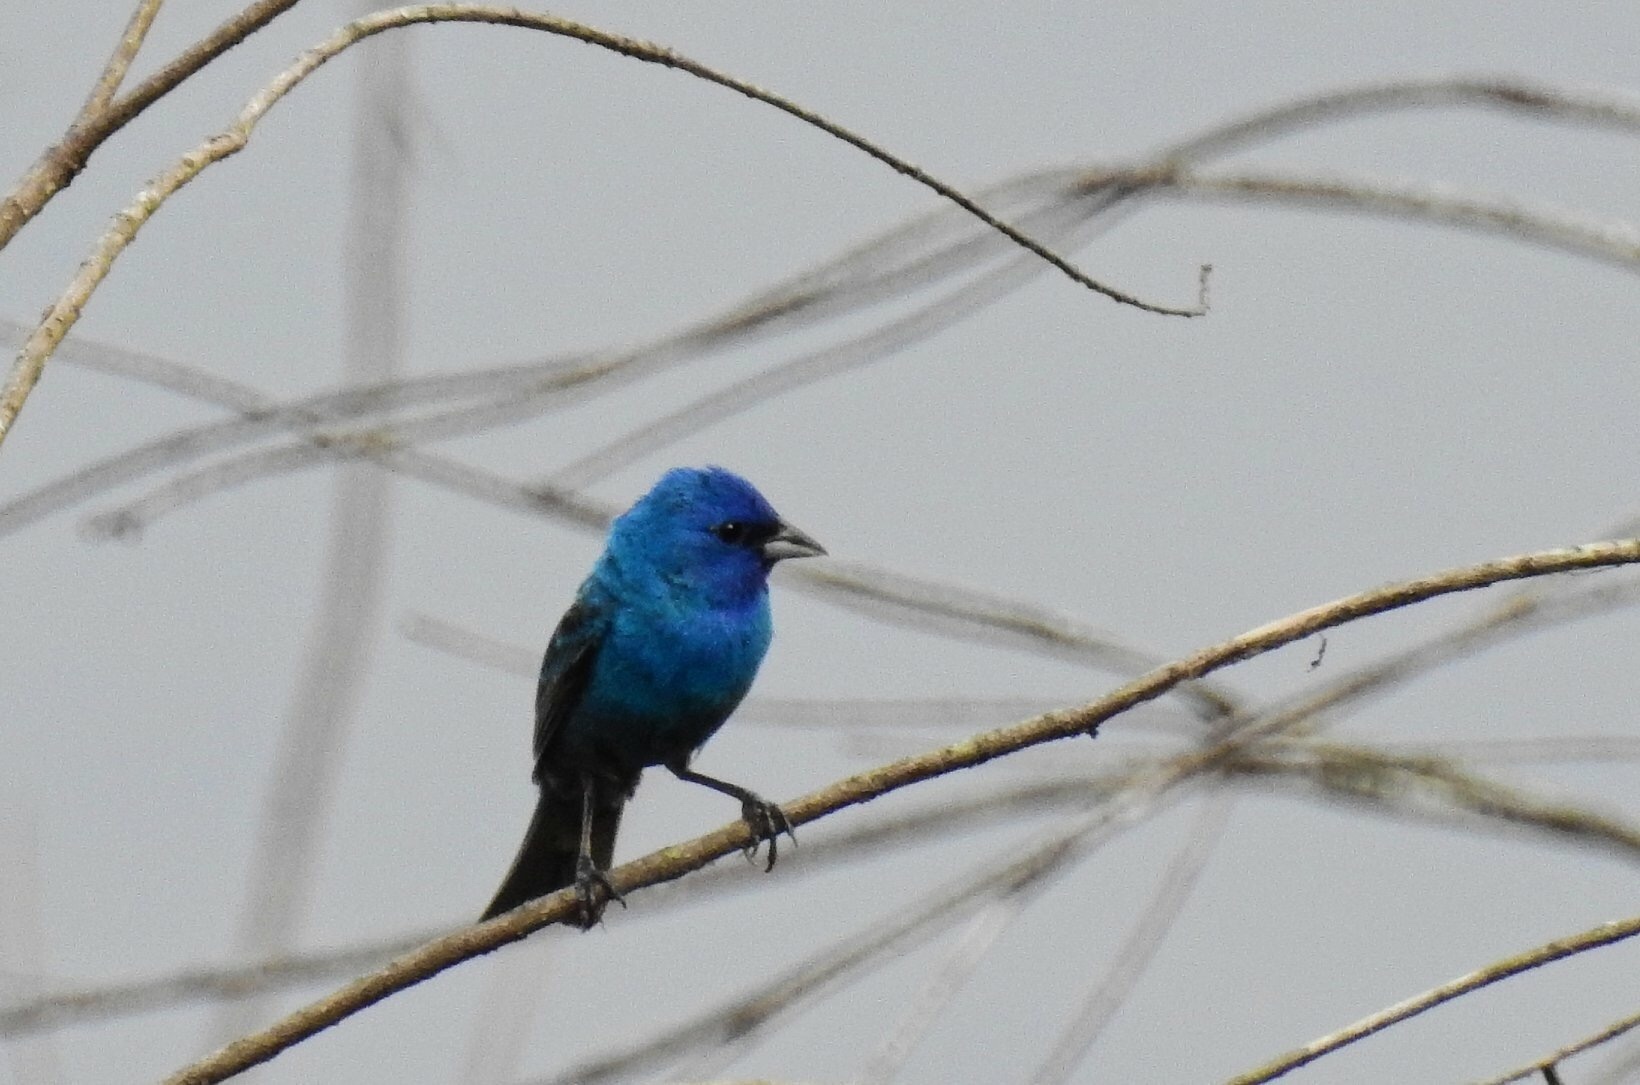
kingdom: Animalia
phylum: Chordata
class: Aves
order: Passeriformes
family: Cardinalidae
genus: Passerina
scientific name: Passerina cyanea
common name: Indigo bunting
